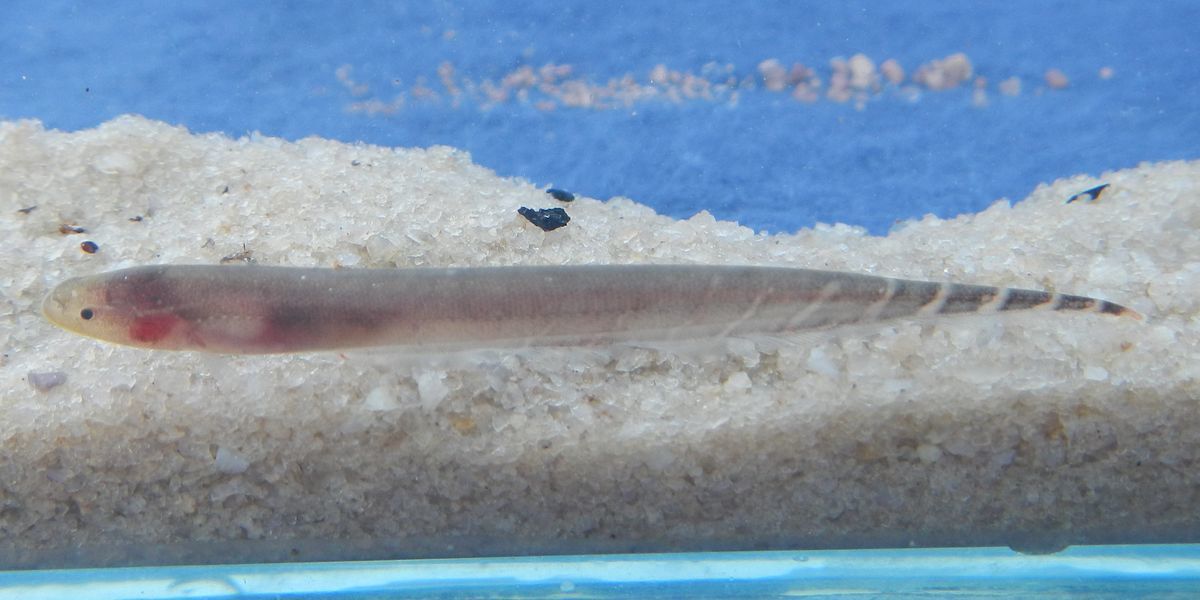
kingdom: Animalia
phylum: Chordata
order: Gymnotiformes
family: Gymnotidae
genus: Gymnotus
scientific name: Gymnotus coropinae
